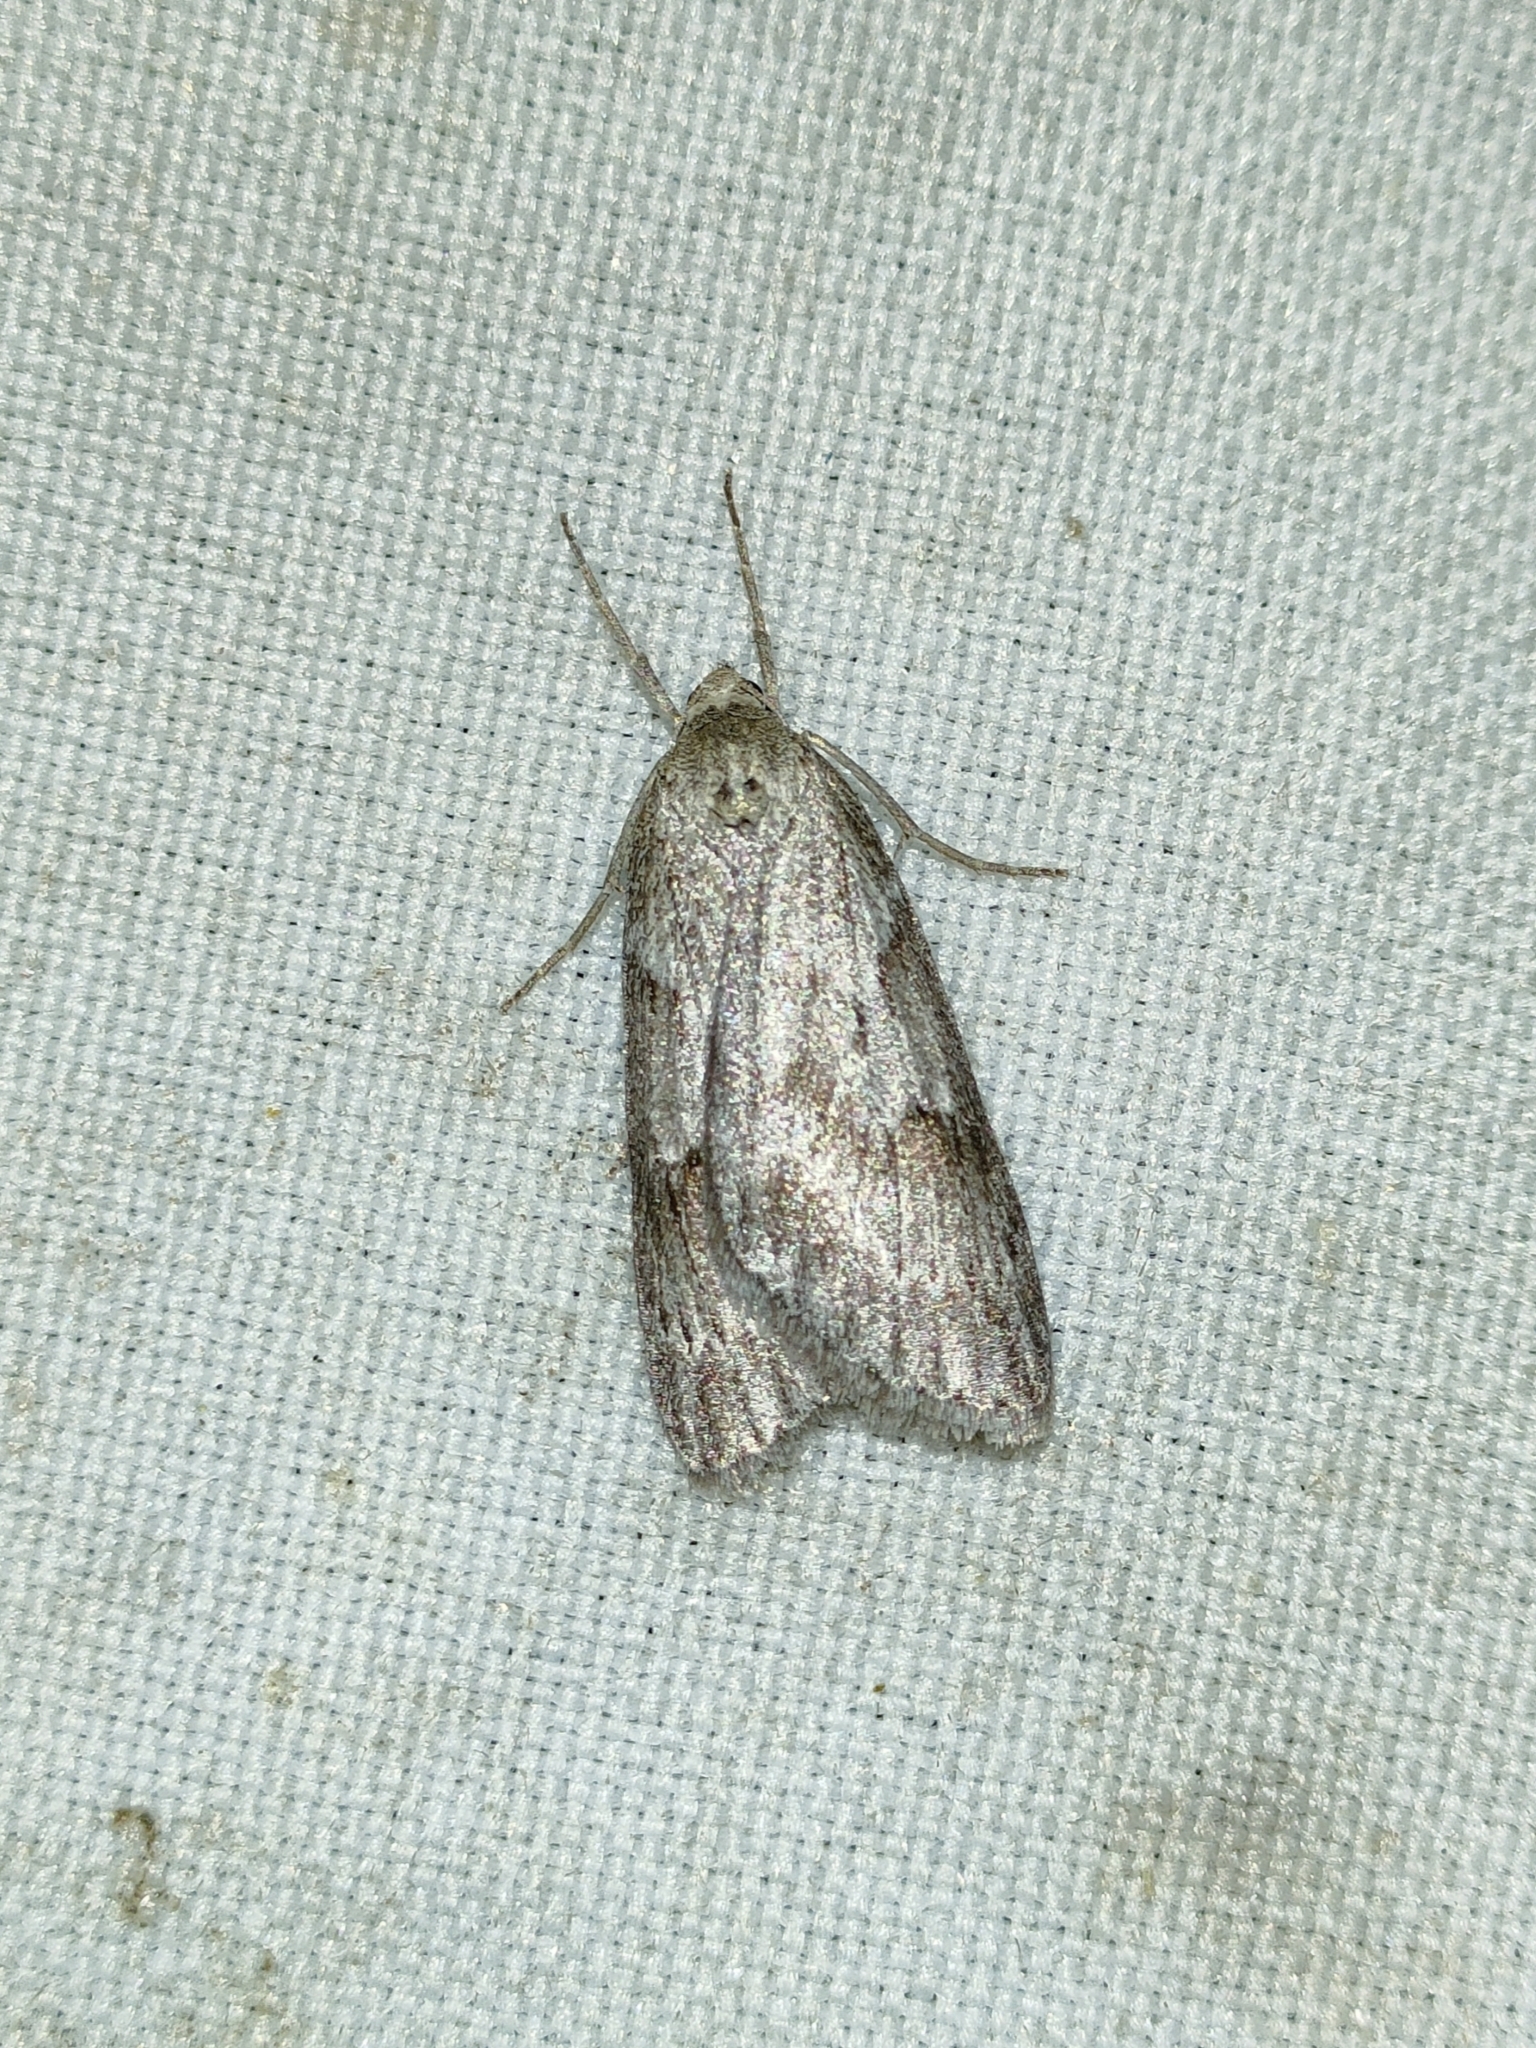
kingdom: Animalia
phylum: Arthropoda
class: Insecta
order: Lepidoptera
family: Geometridae
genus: Pachycnemia
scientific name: Pachycnemia hippocastanaria
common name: Horse chestnut
